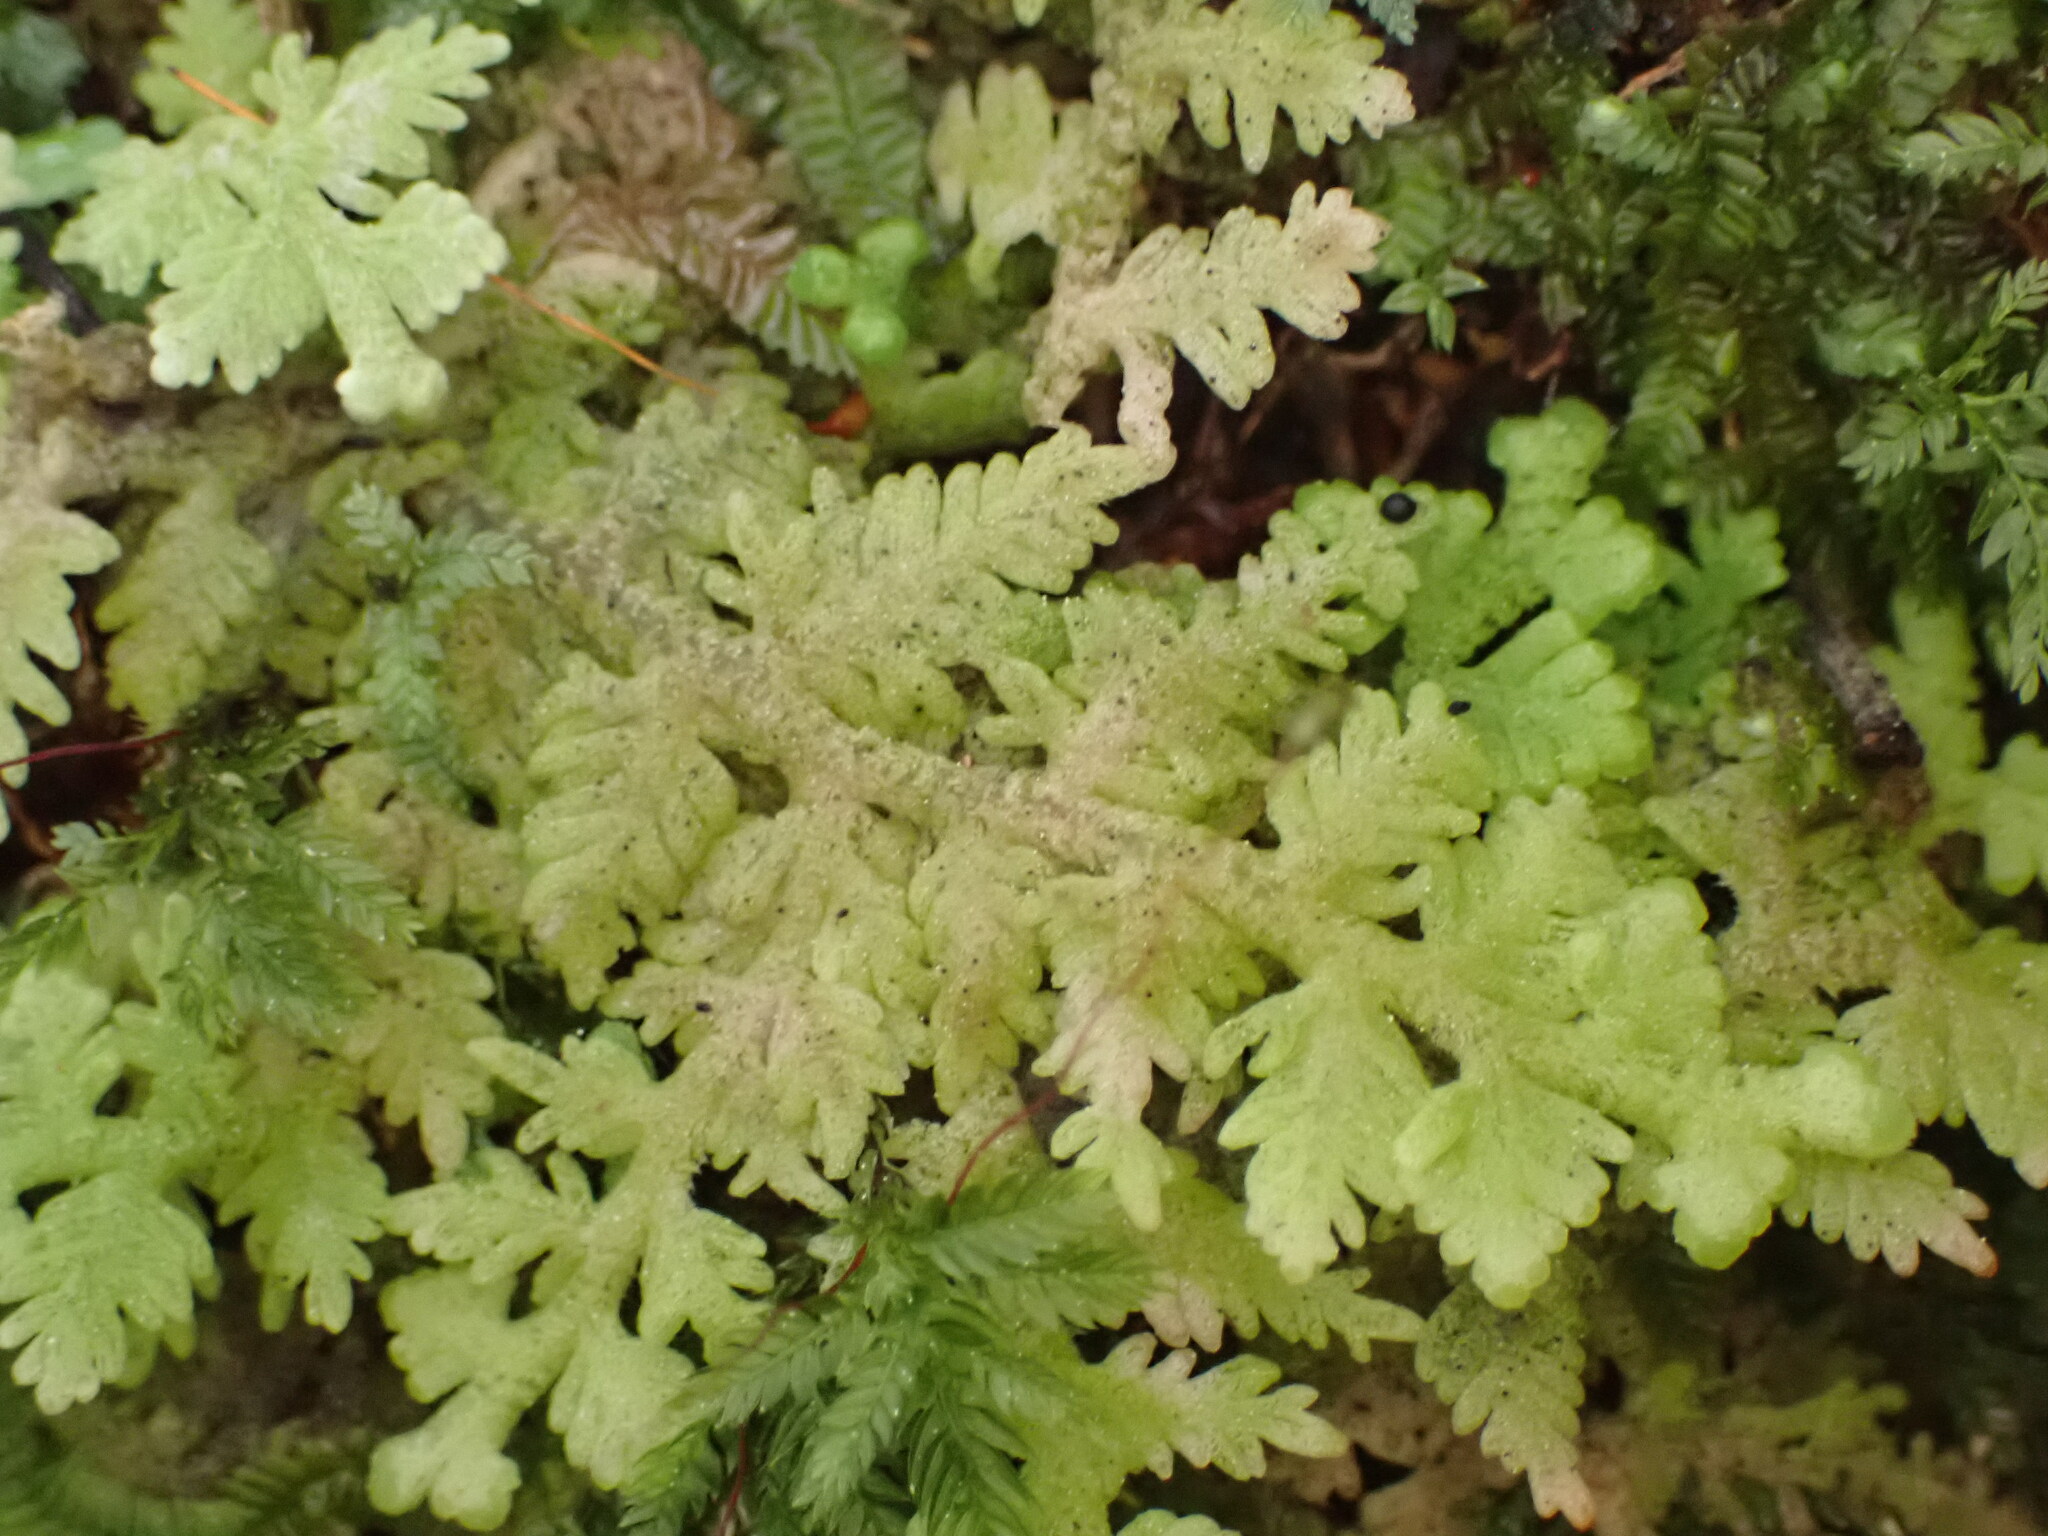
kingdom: Plantae
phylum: Marchantiophyta
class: Jungermanniopsida
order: Jungermanniales
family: Trichocoleaceae
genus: Trichocolea
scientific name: Trichocolea mollissima
